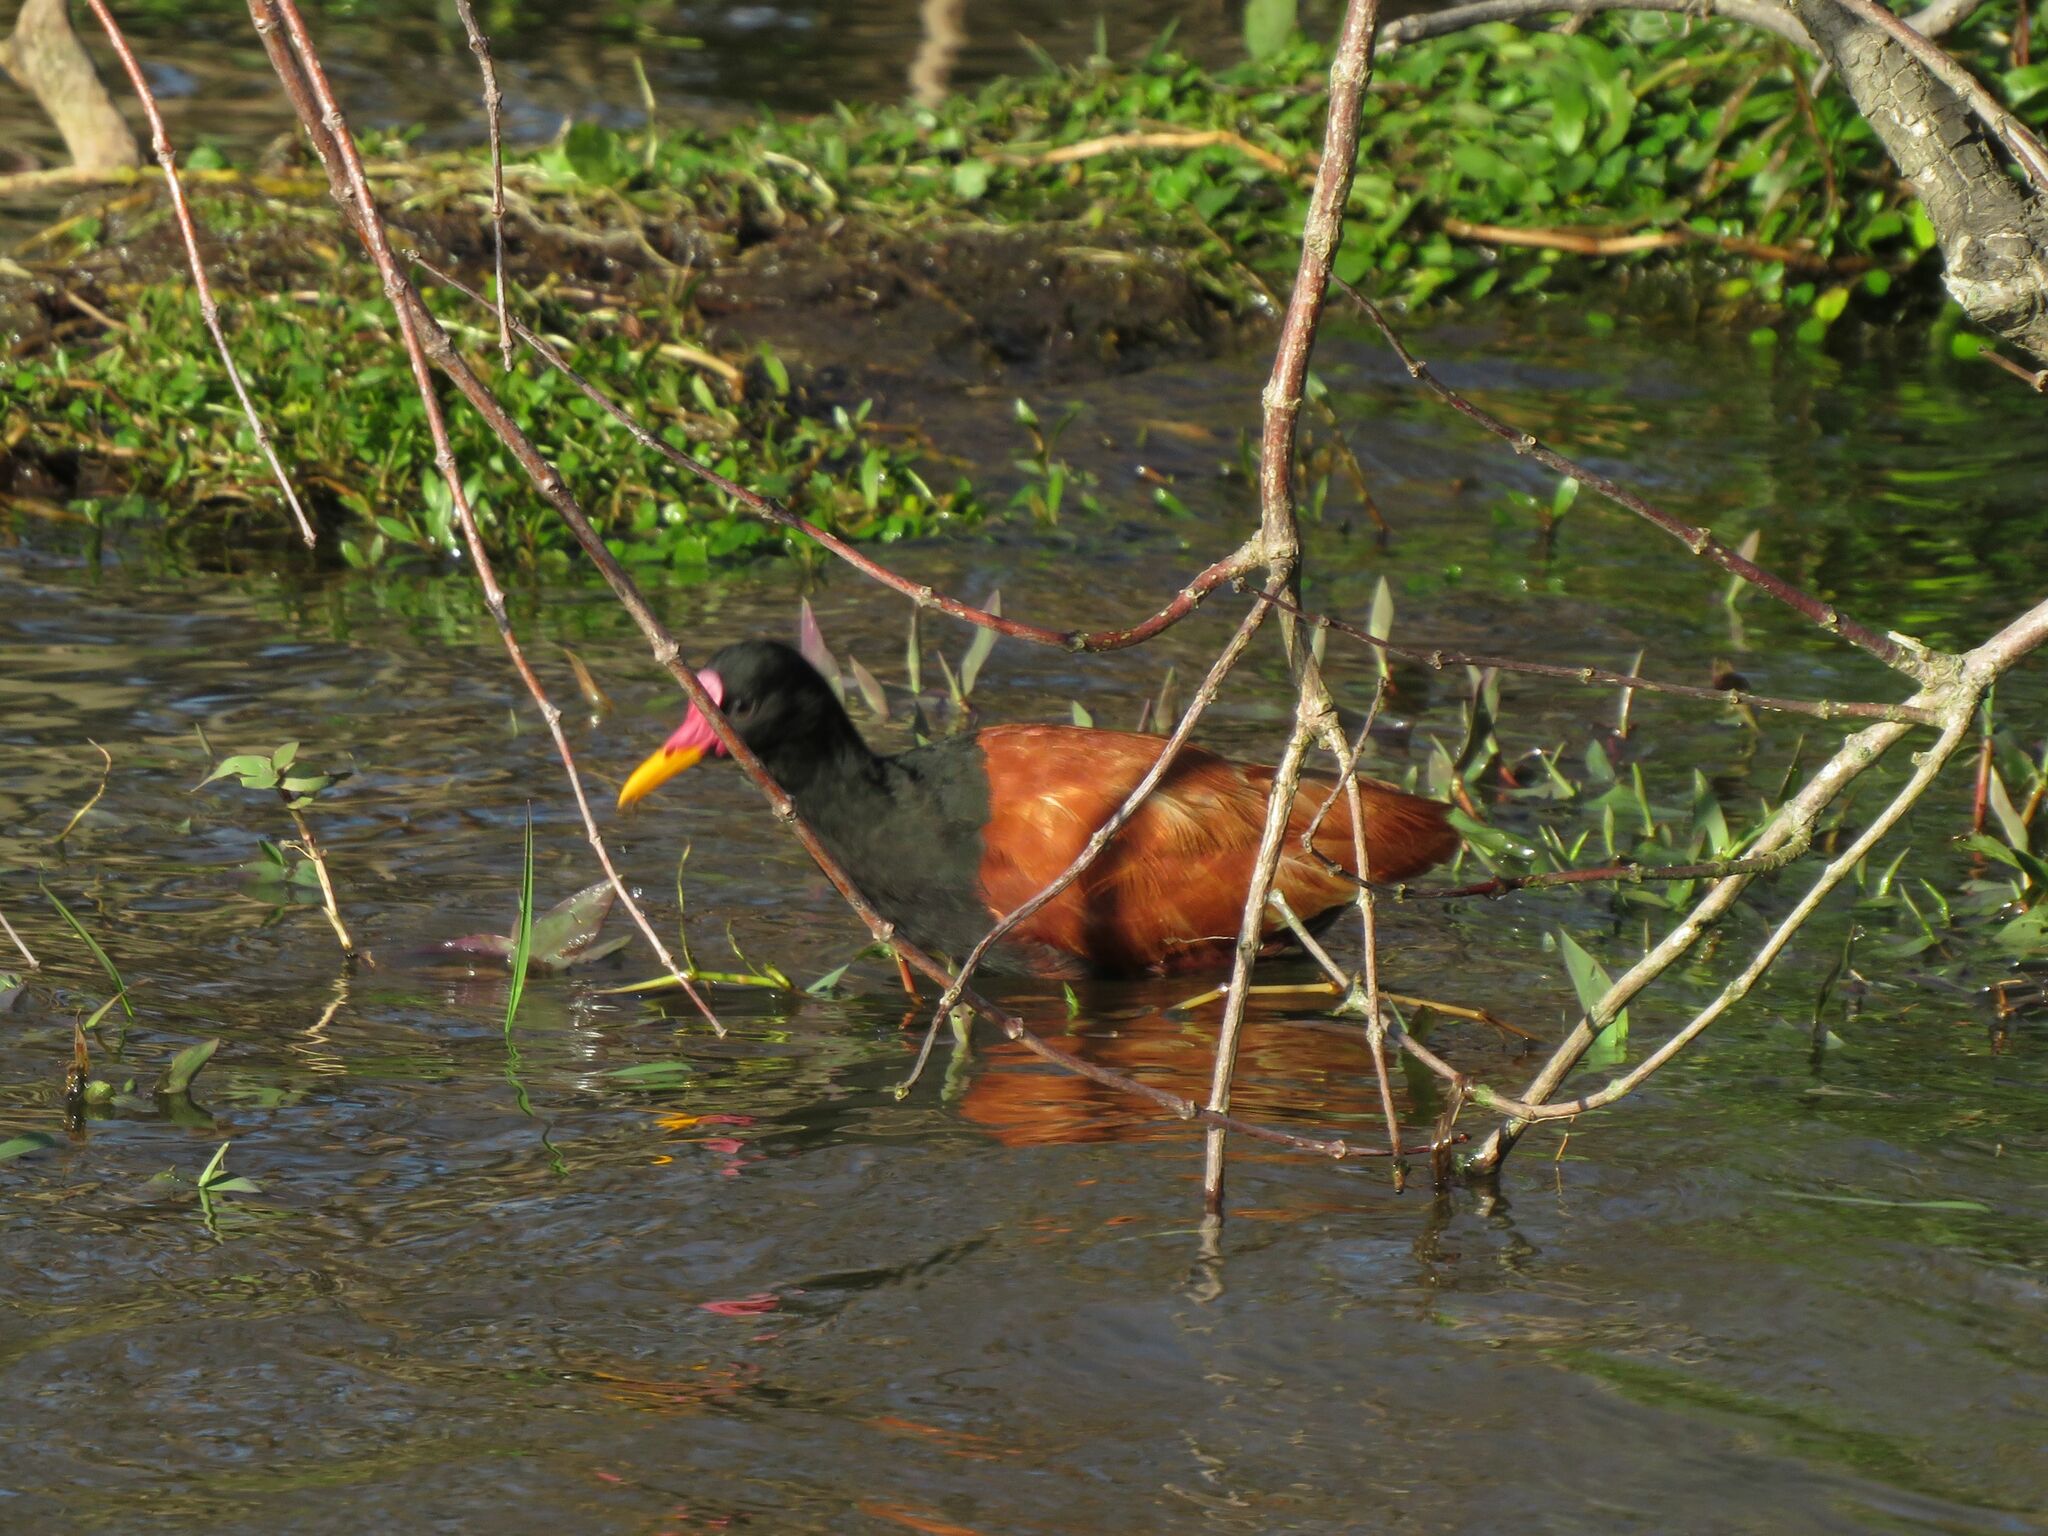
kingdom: Animalia
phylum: Chordata
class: Aves
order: Charadriiformes
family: Jacanidae
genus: Jacana
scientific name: Jacana jacana
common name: Wattled jacana
